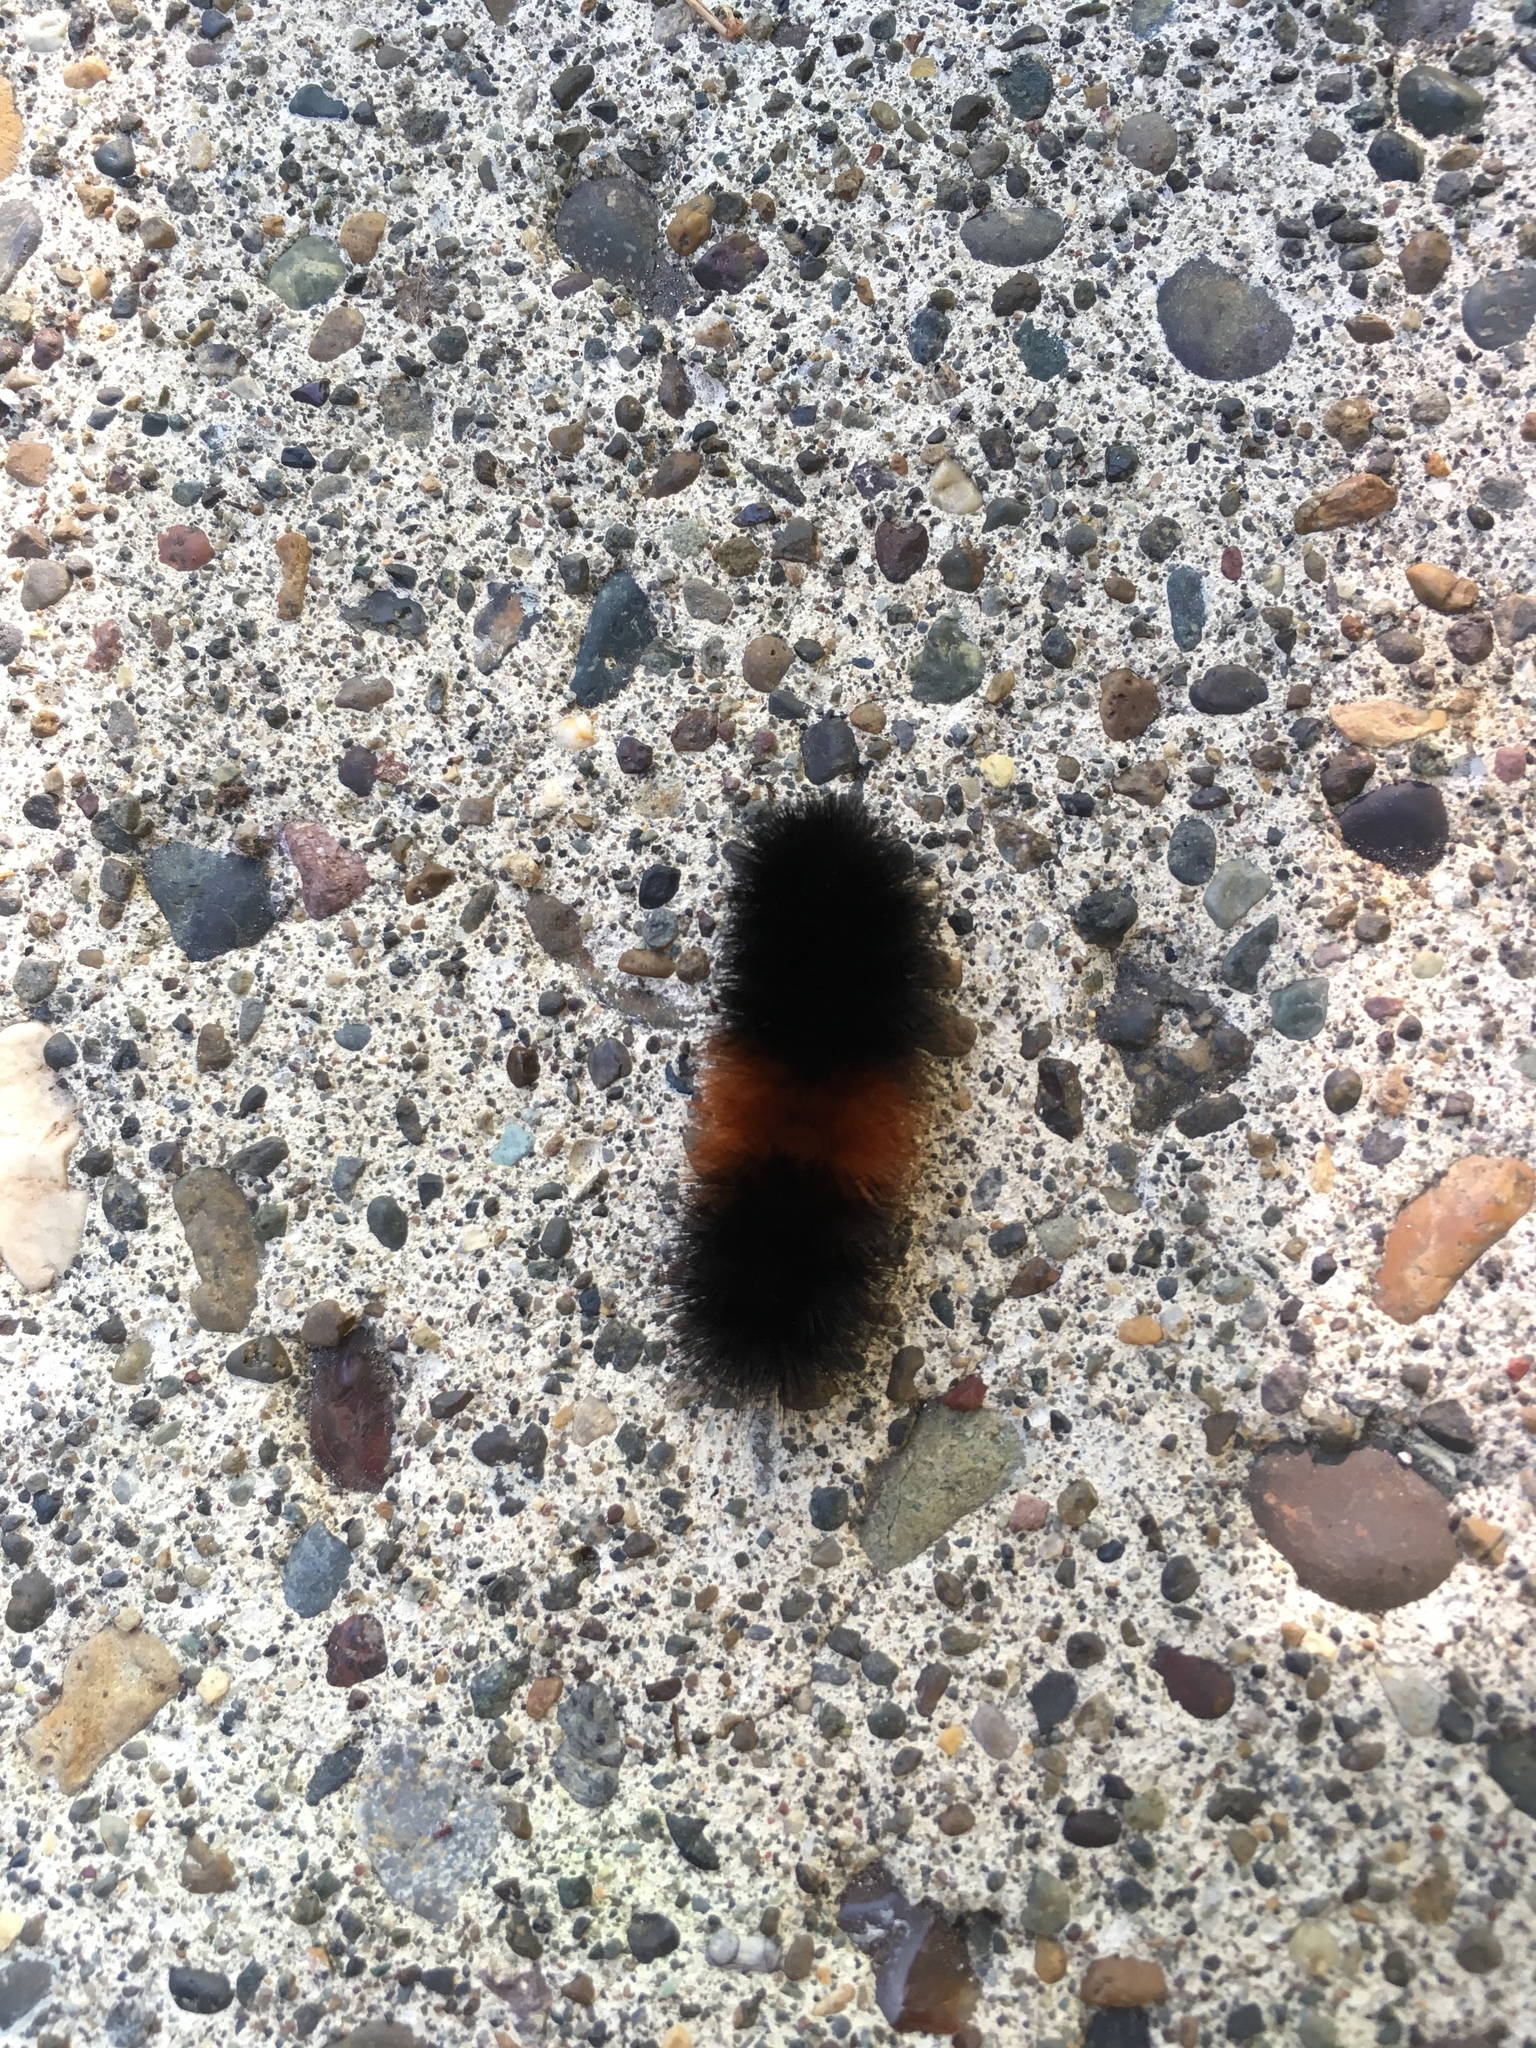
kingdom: Animalia
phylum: Arthropoda
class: Insecta
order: Lepidoptera
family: Erebidae
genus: Pyrrharctia
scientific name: Pyrrharctia isabella
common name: Isabella tiger moth
